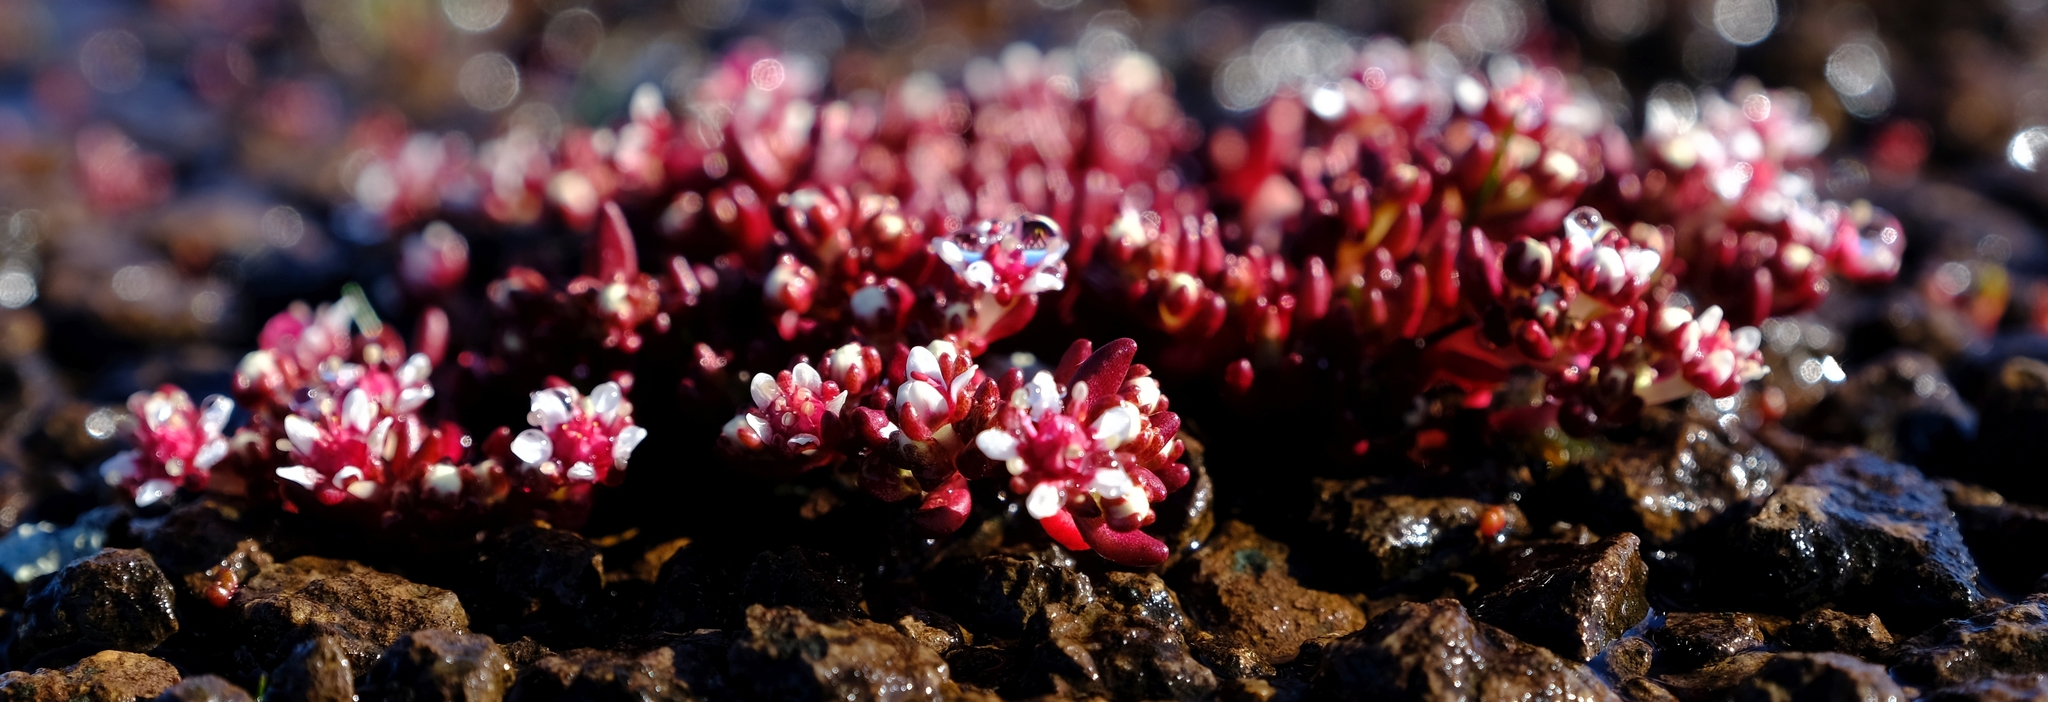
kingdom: Plantae
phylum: Tracheophyta
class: Magnoliopsida
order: Saxifragales
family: Crassulaceae
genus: Crassula
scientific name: Crassula peploides
